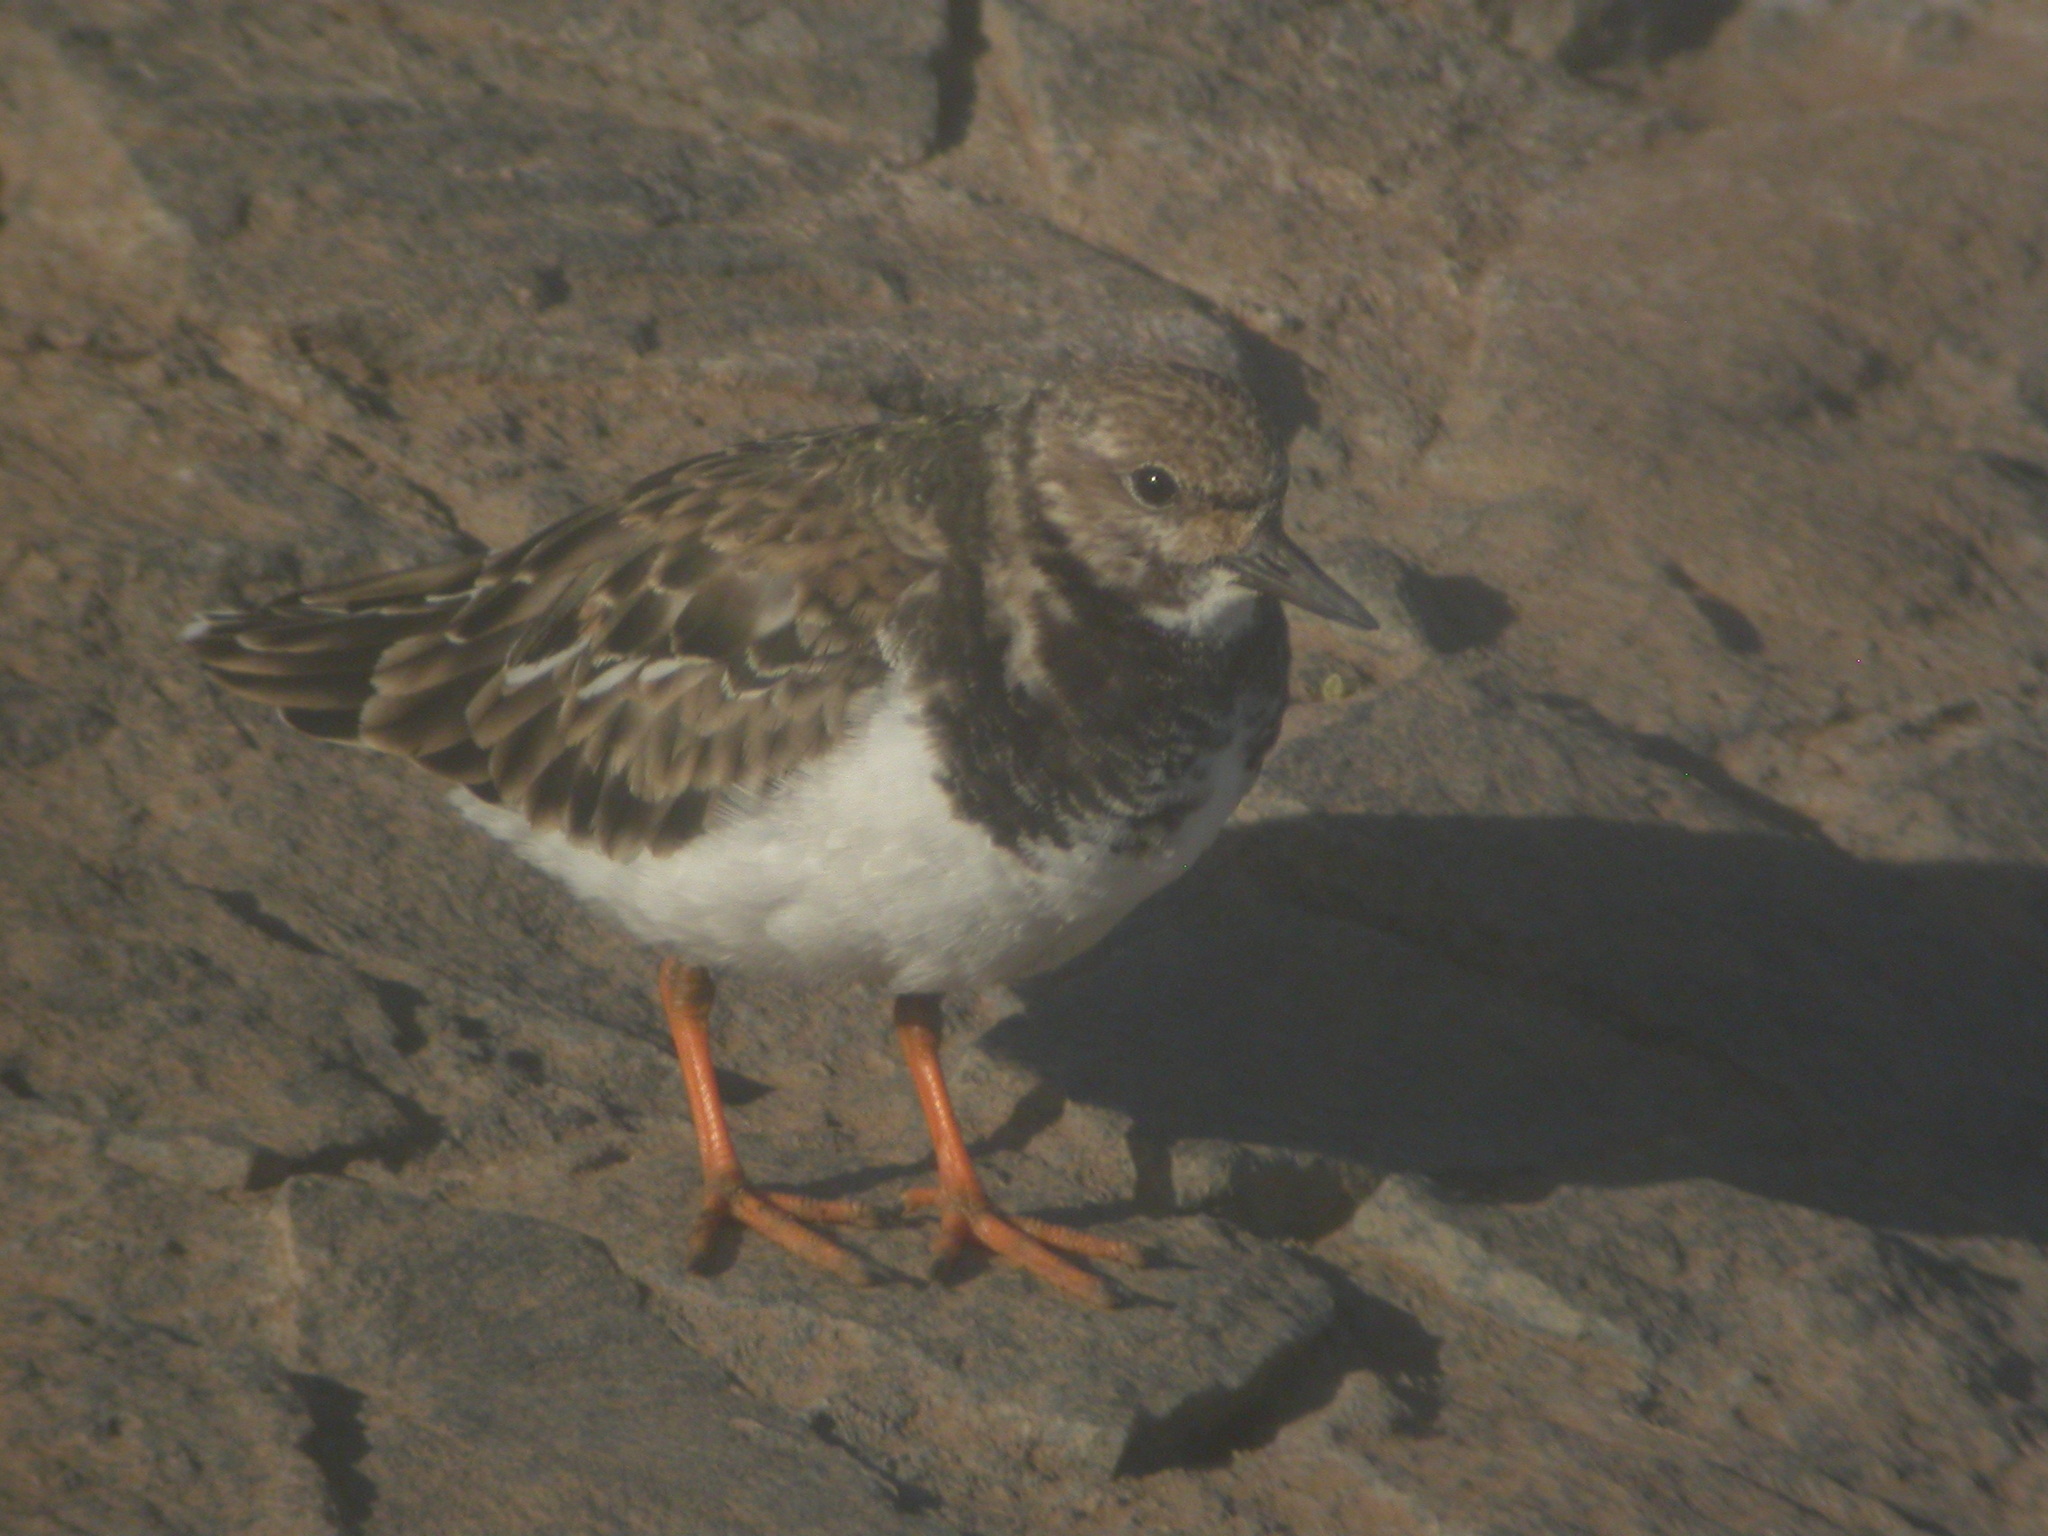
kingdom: Animalia
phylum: Chordata
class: Aves
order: Charadriiformes
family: Scolopacidae
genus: Arenaria
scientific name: Arenaria interpres
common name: Ruddy turnstone
